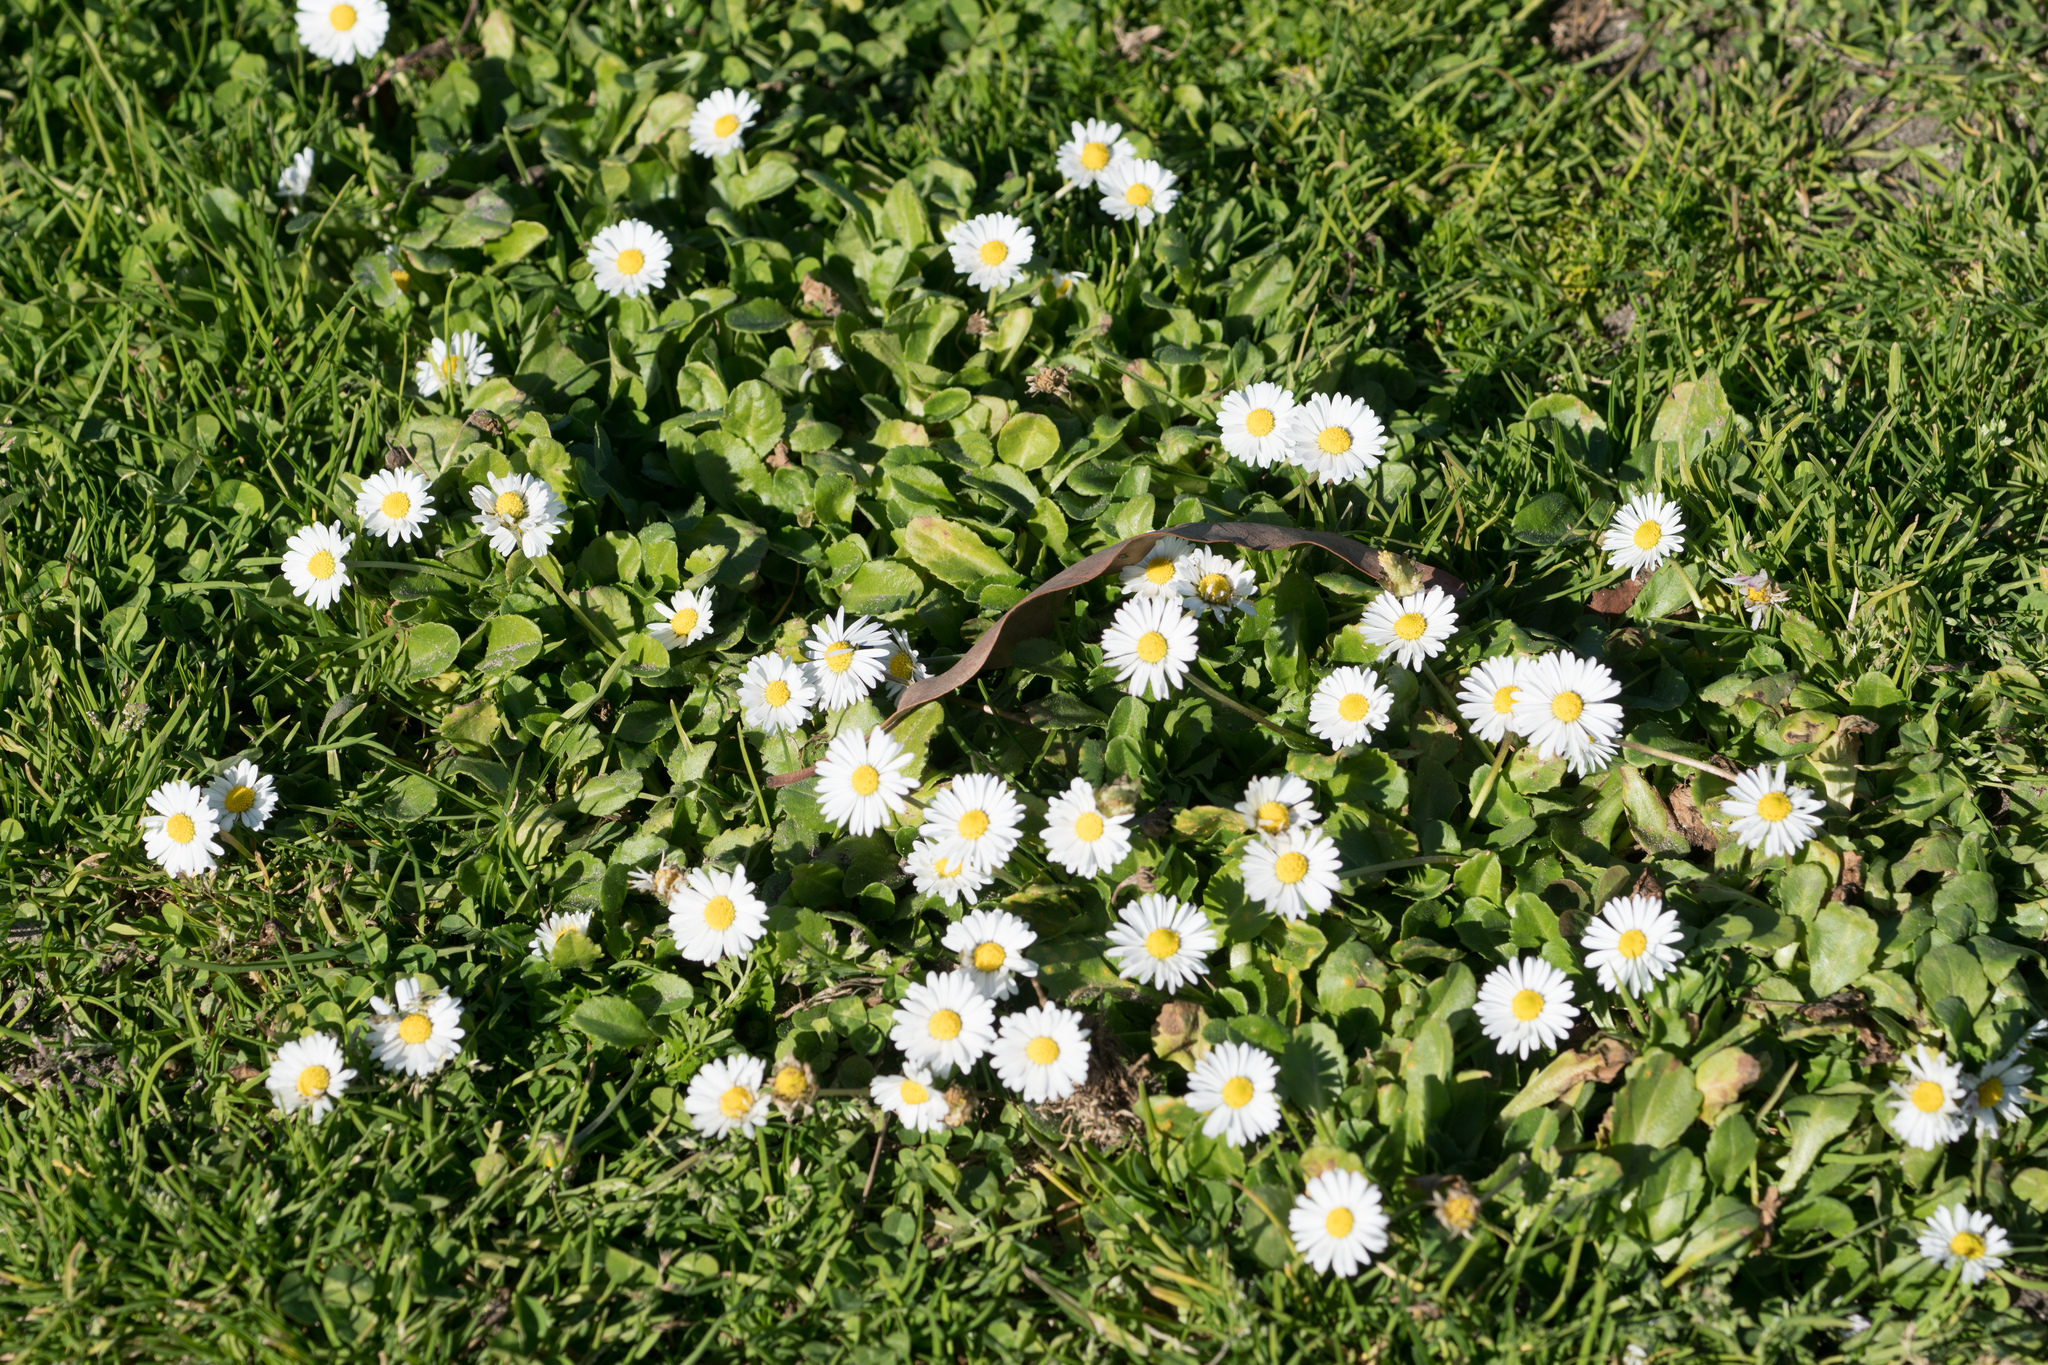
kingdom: Plantae
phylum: Tracheophyta
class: Magnoliopsida
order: Asterales
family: Asteraceae
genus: Bellis
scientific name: Bellis perennis
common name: Lawndaisy
